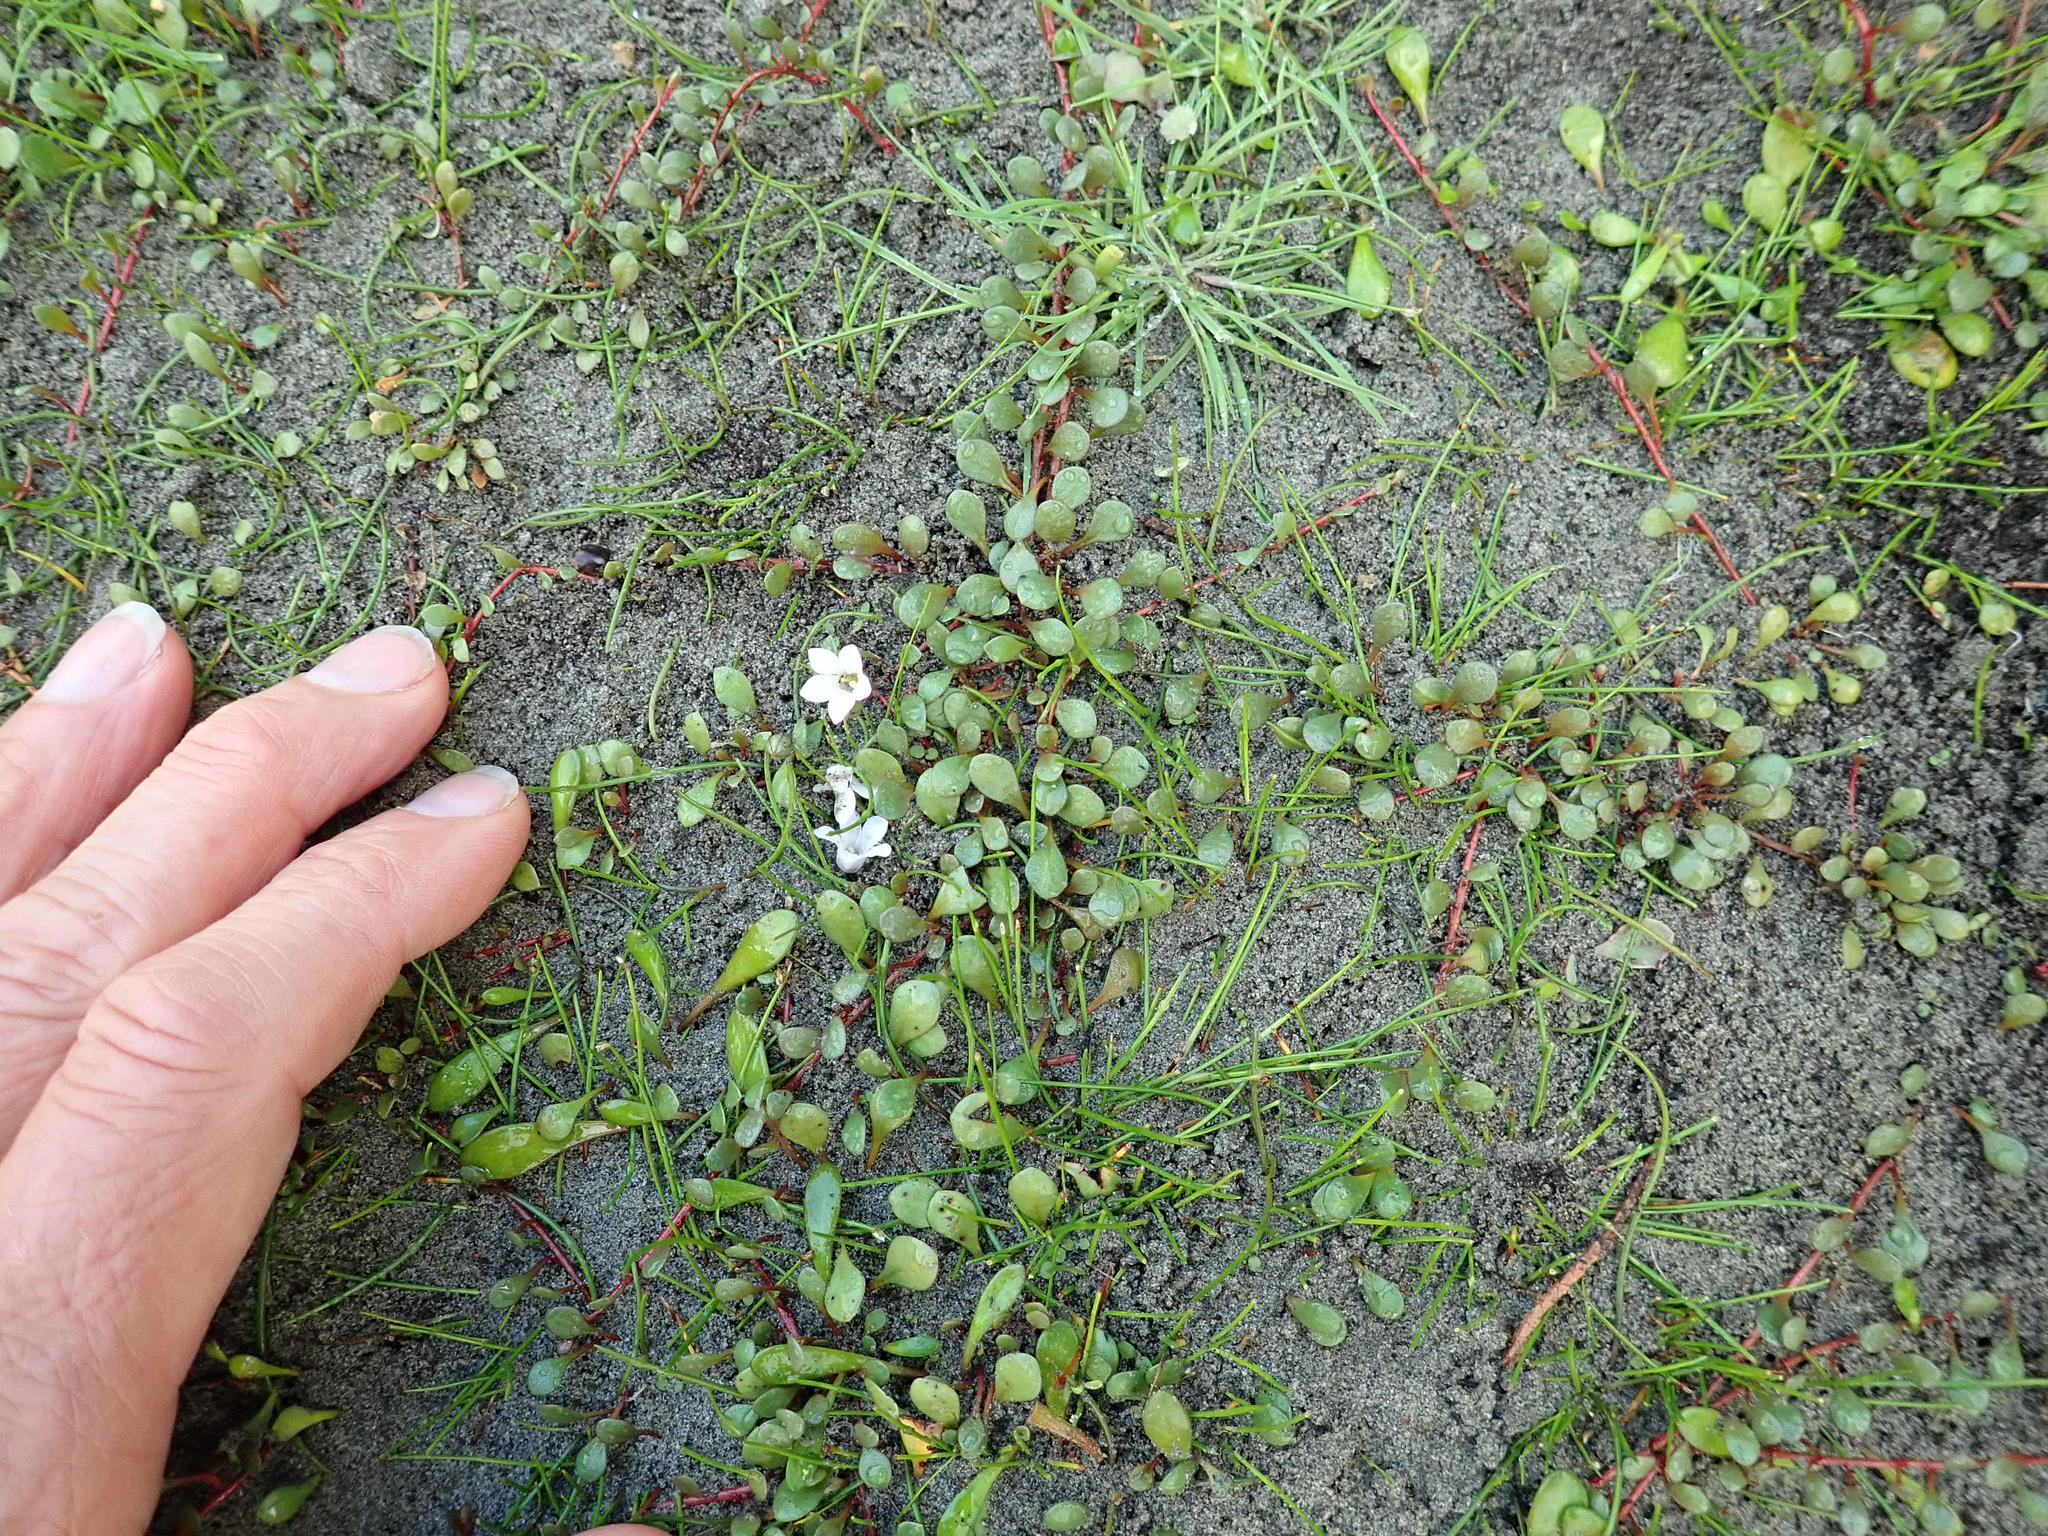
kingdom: Plantae
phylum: Tracheophyta
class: Magnoliopsida
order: Ericales
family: Primulaceae
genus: Samolus
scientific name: Samolus repens
